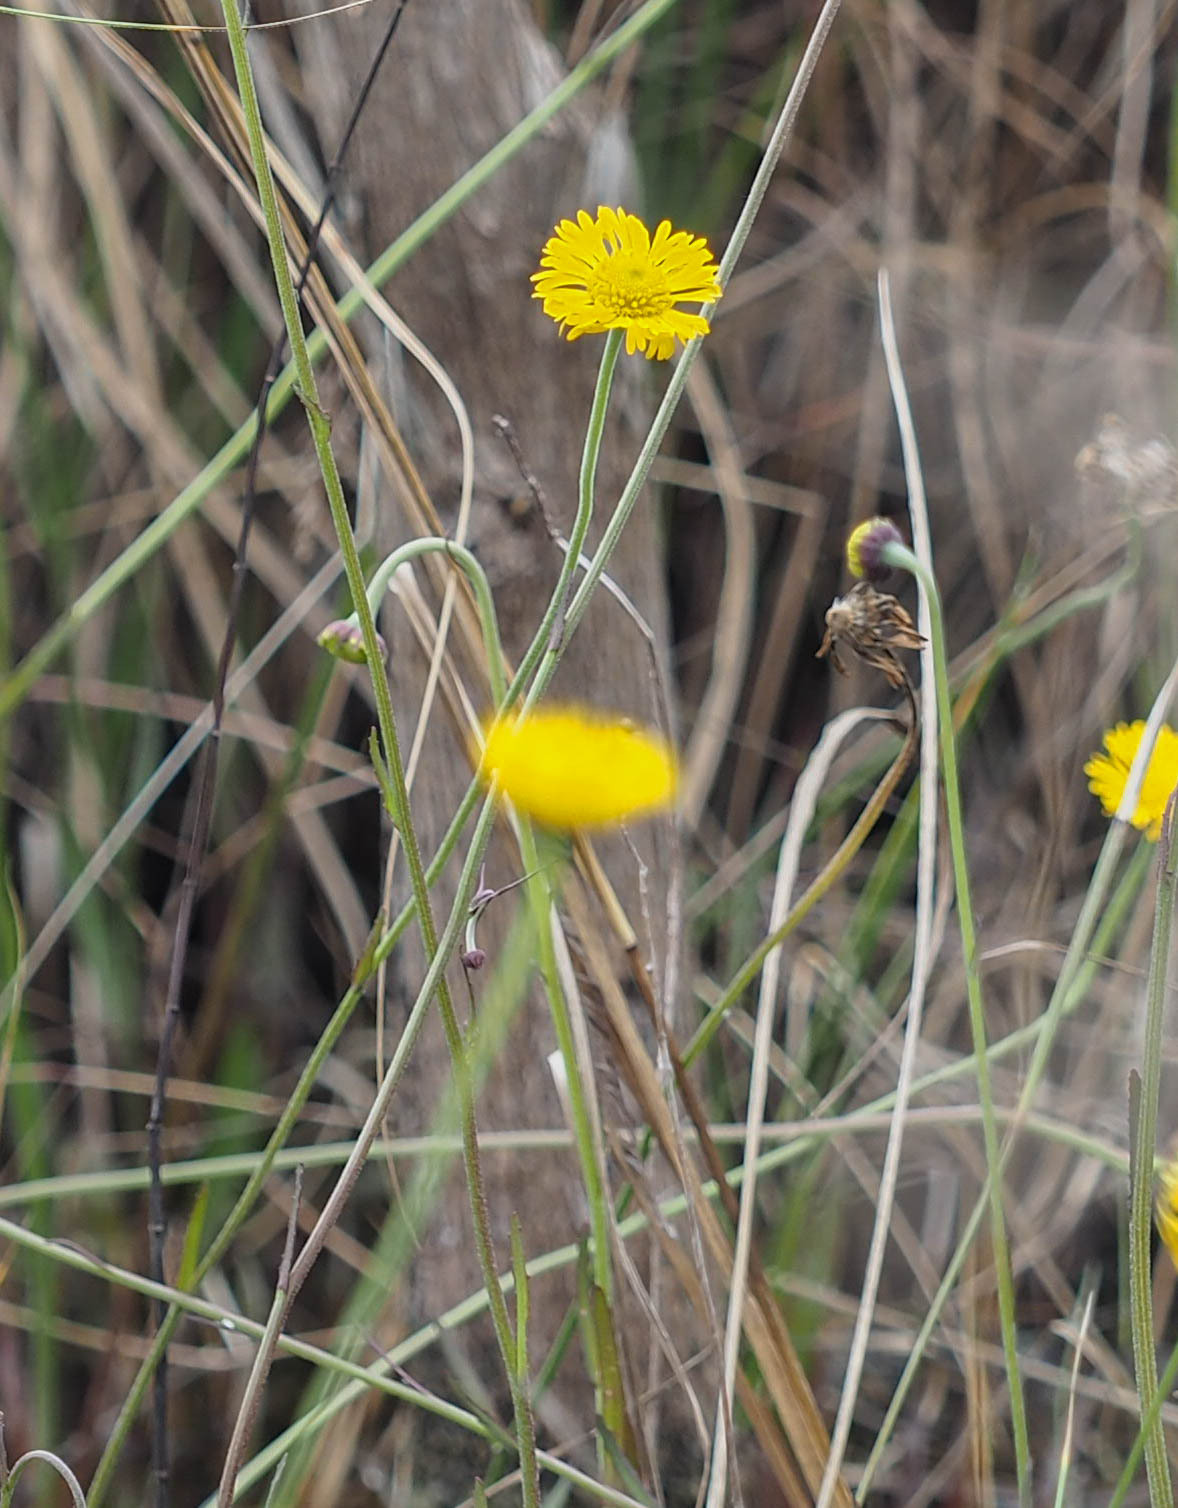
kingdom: Plantae
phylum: Tracheophyta
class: Magnoliopsida
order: Asterales
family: Asteraceae
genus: Helenium
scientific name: Helenium pinnatifidum
